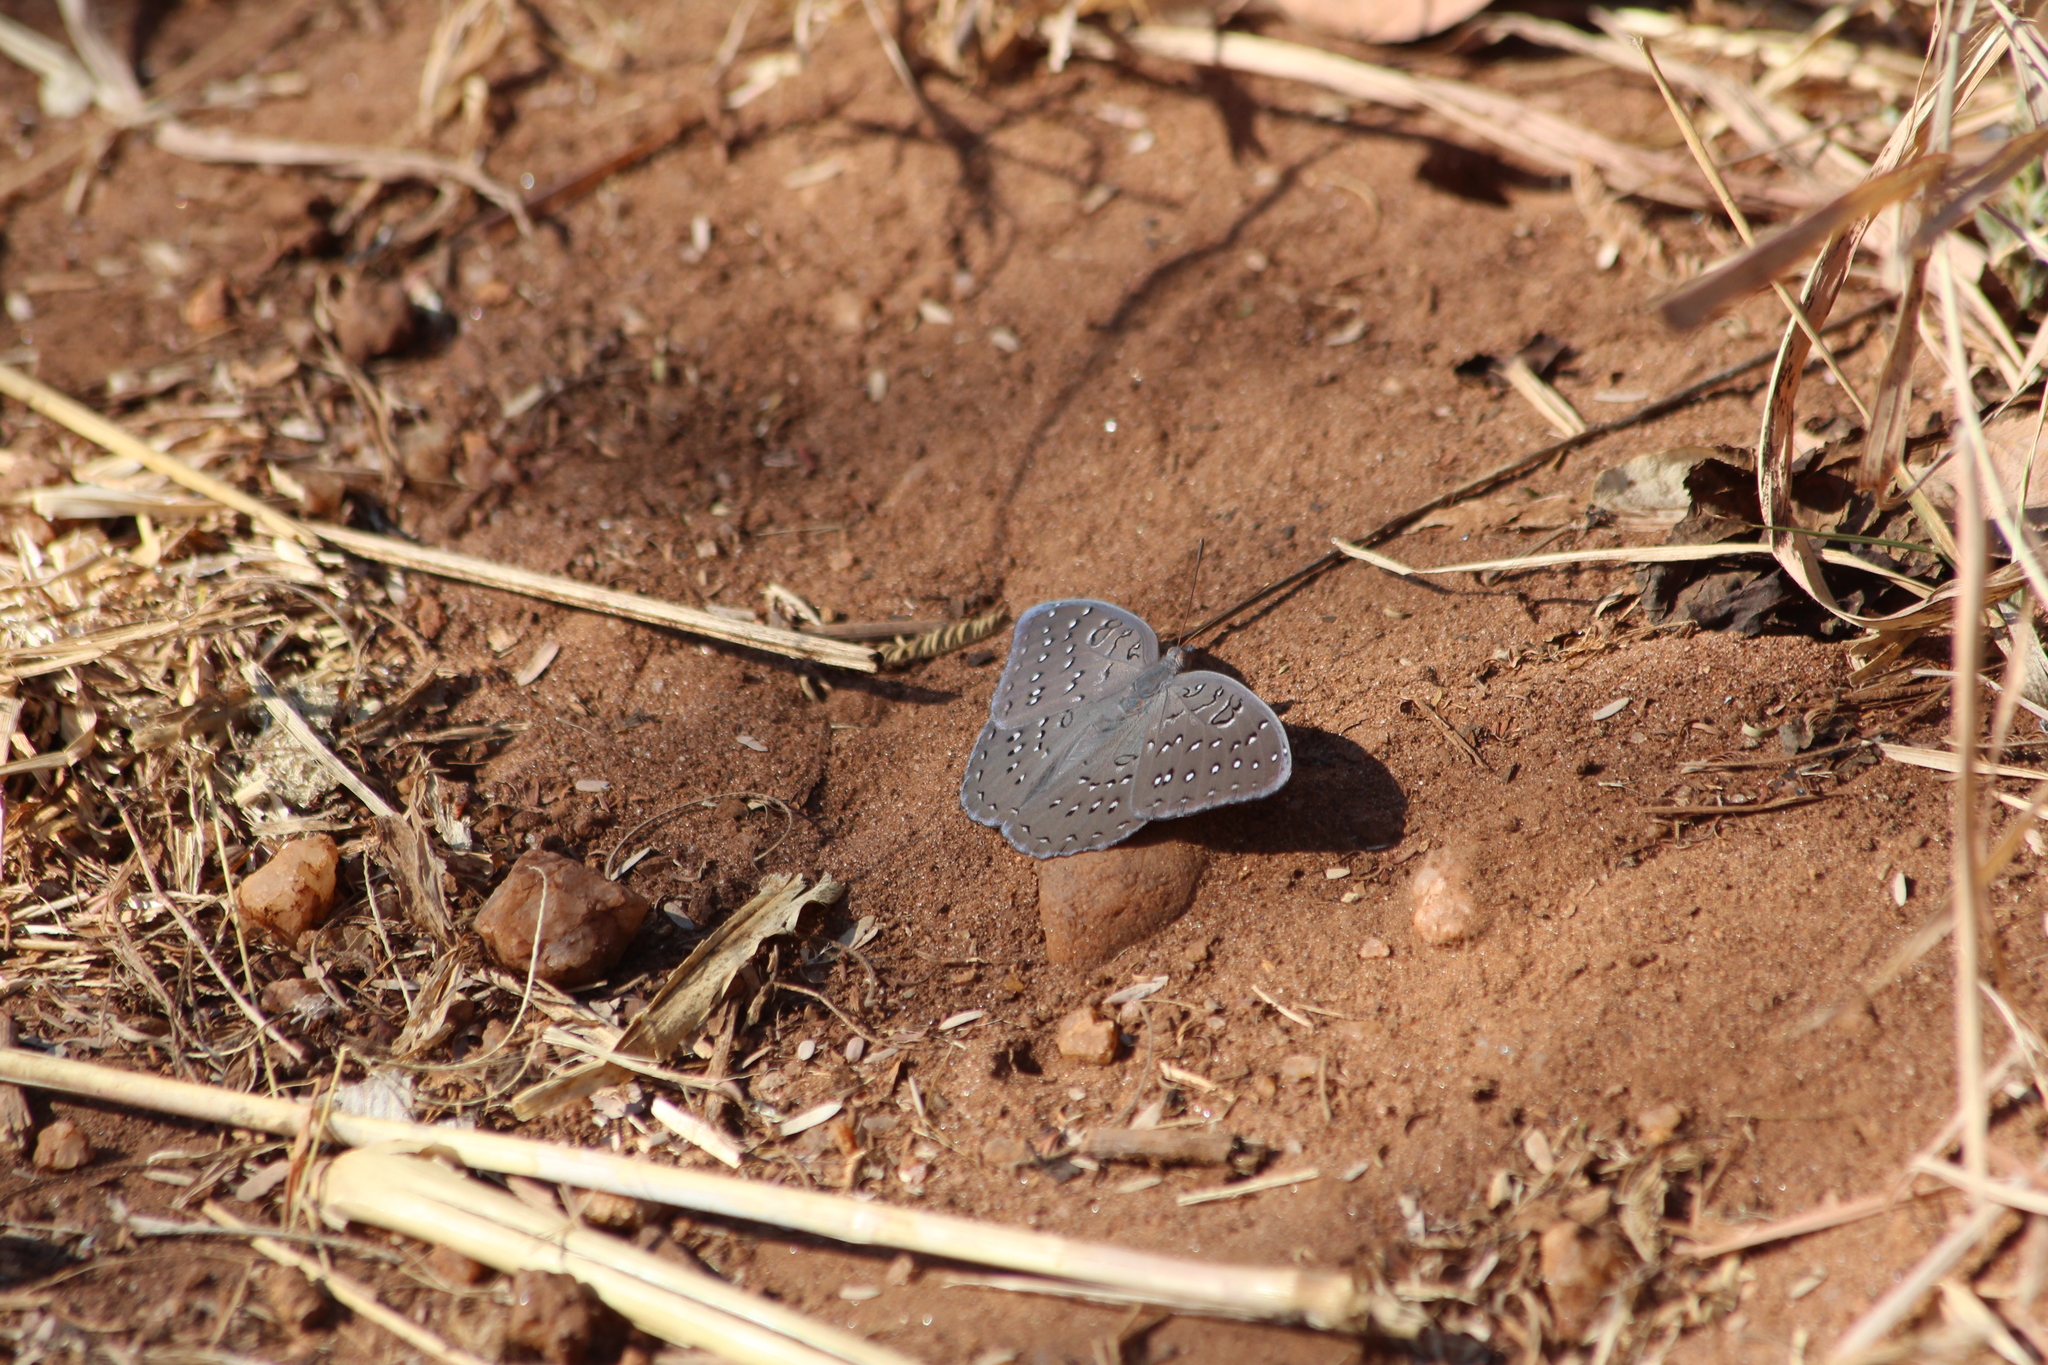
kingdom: Animalia
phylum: Arthropoda
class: Insecta
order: Lepidoptera
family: Nymphalidae
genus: Hamanumida
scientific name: Hamanumida daedalus
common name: Guinea-fowl butterfly
